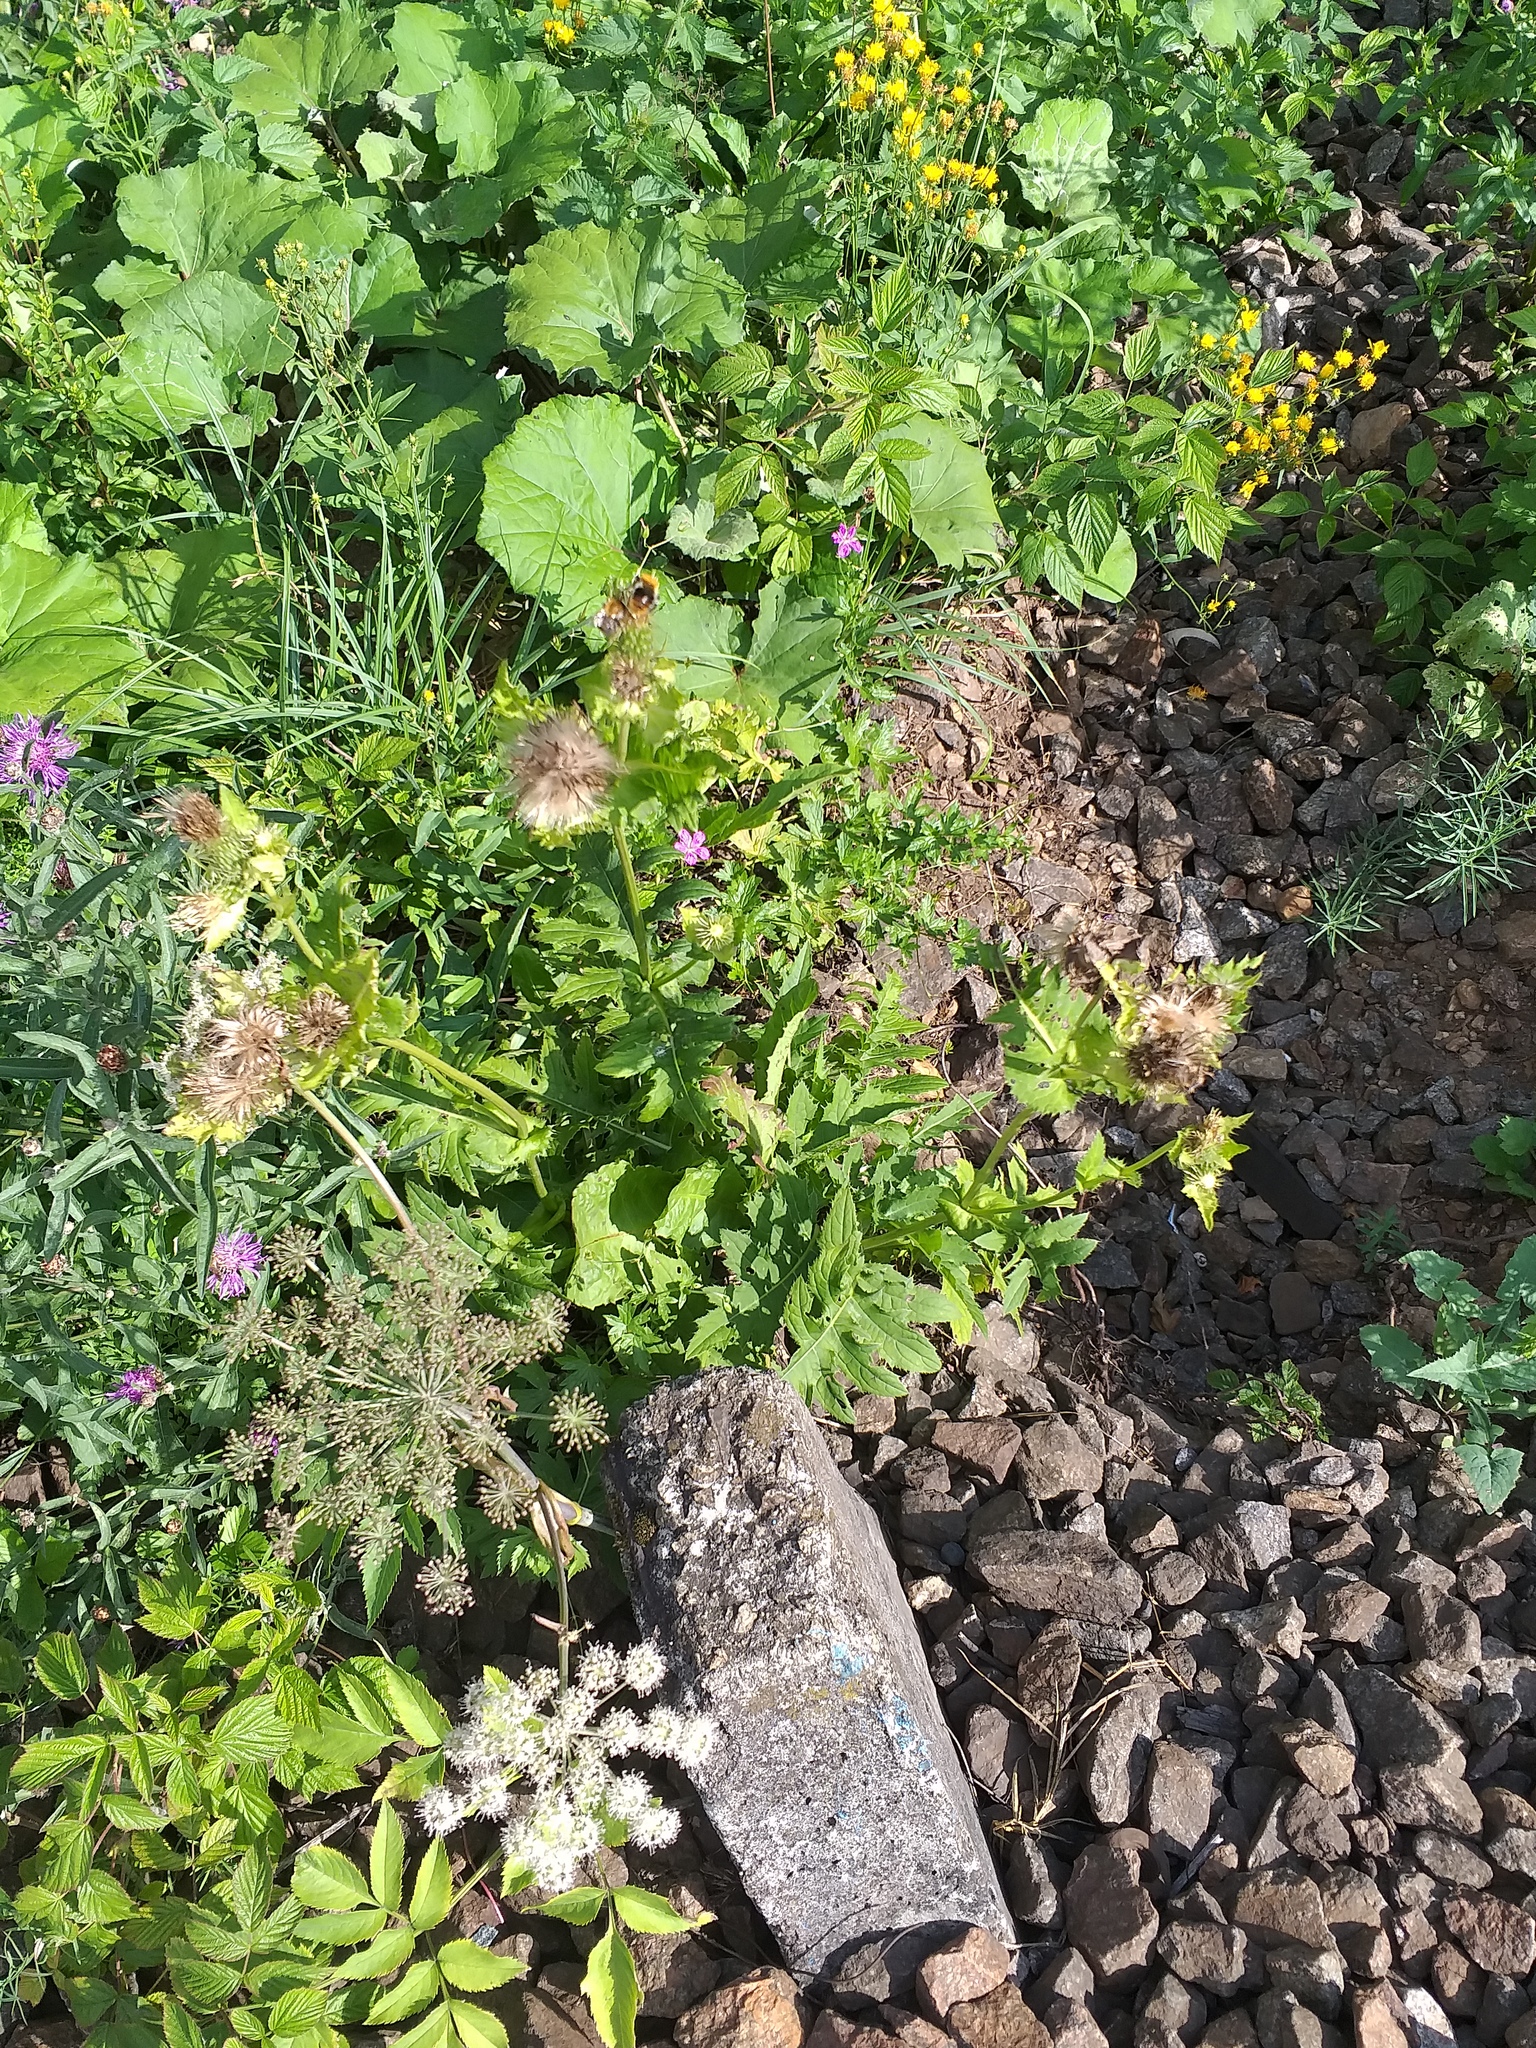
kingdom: Plantae
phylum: Tracheophyta
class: Magnoliopsida
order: Asterales
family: Asteraceae
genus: Cirsium
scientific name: Cirsium oleraceum
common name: Cabbage thistle
